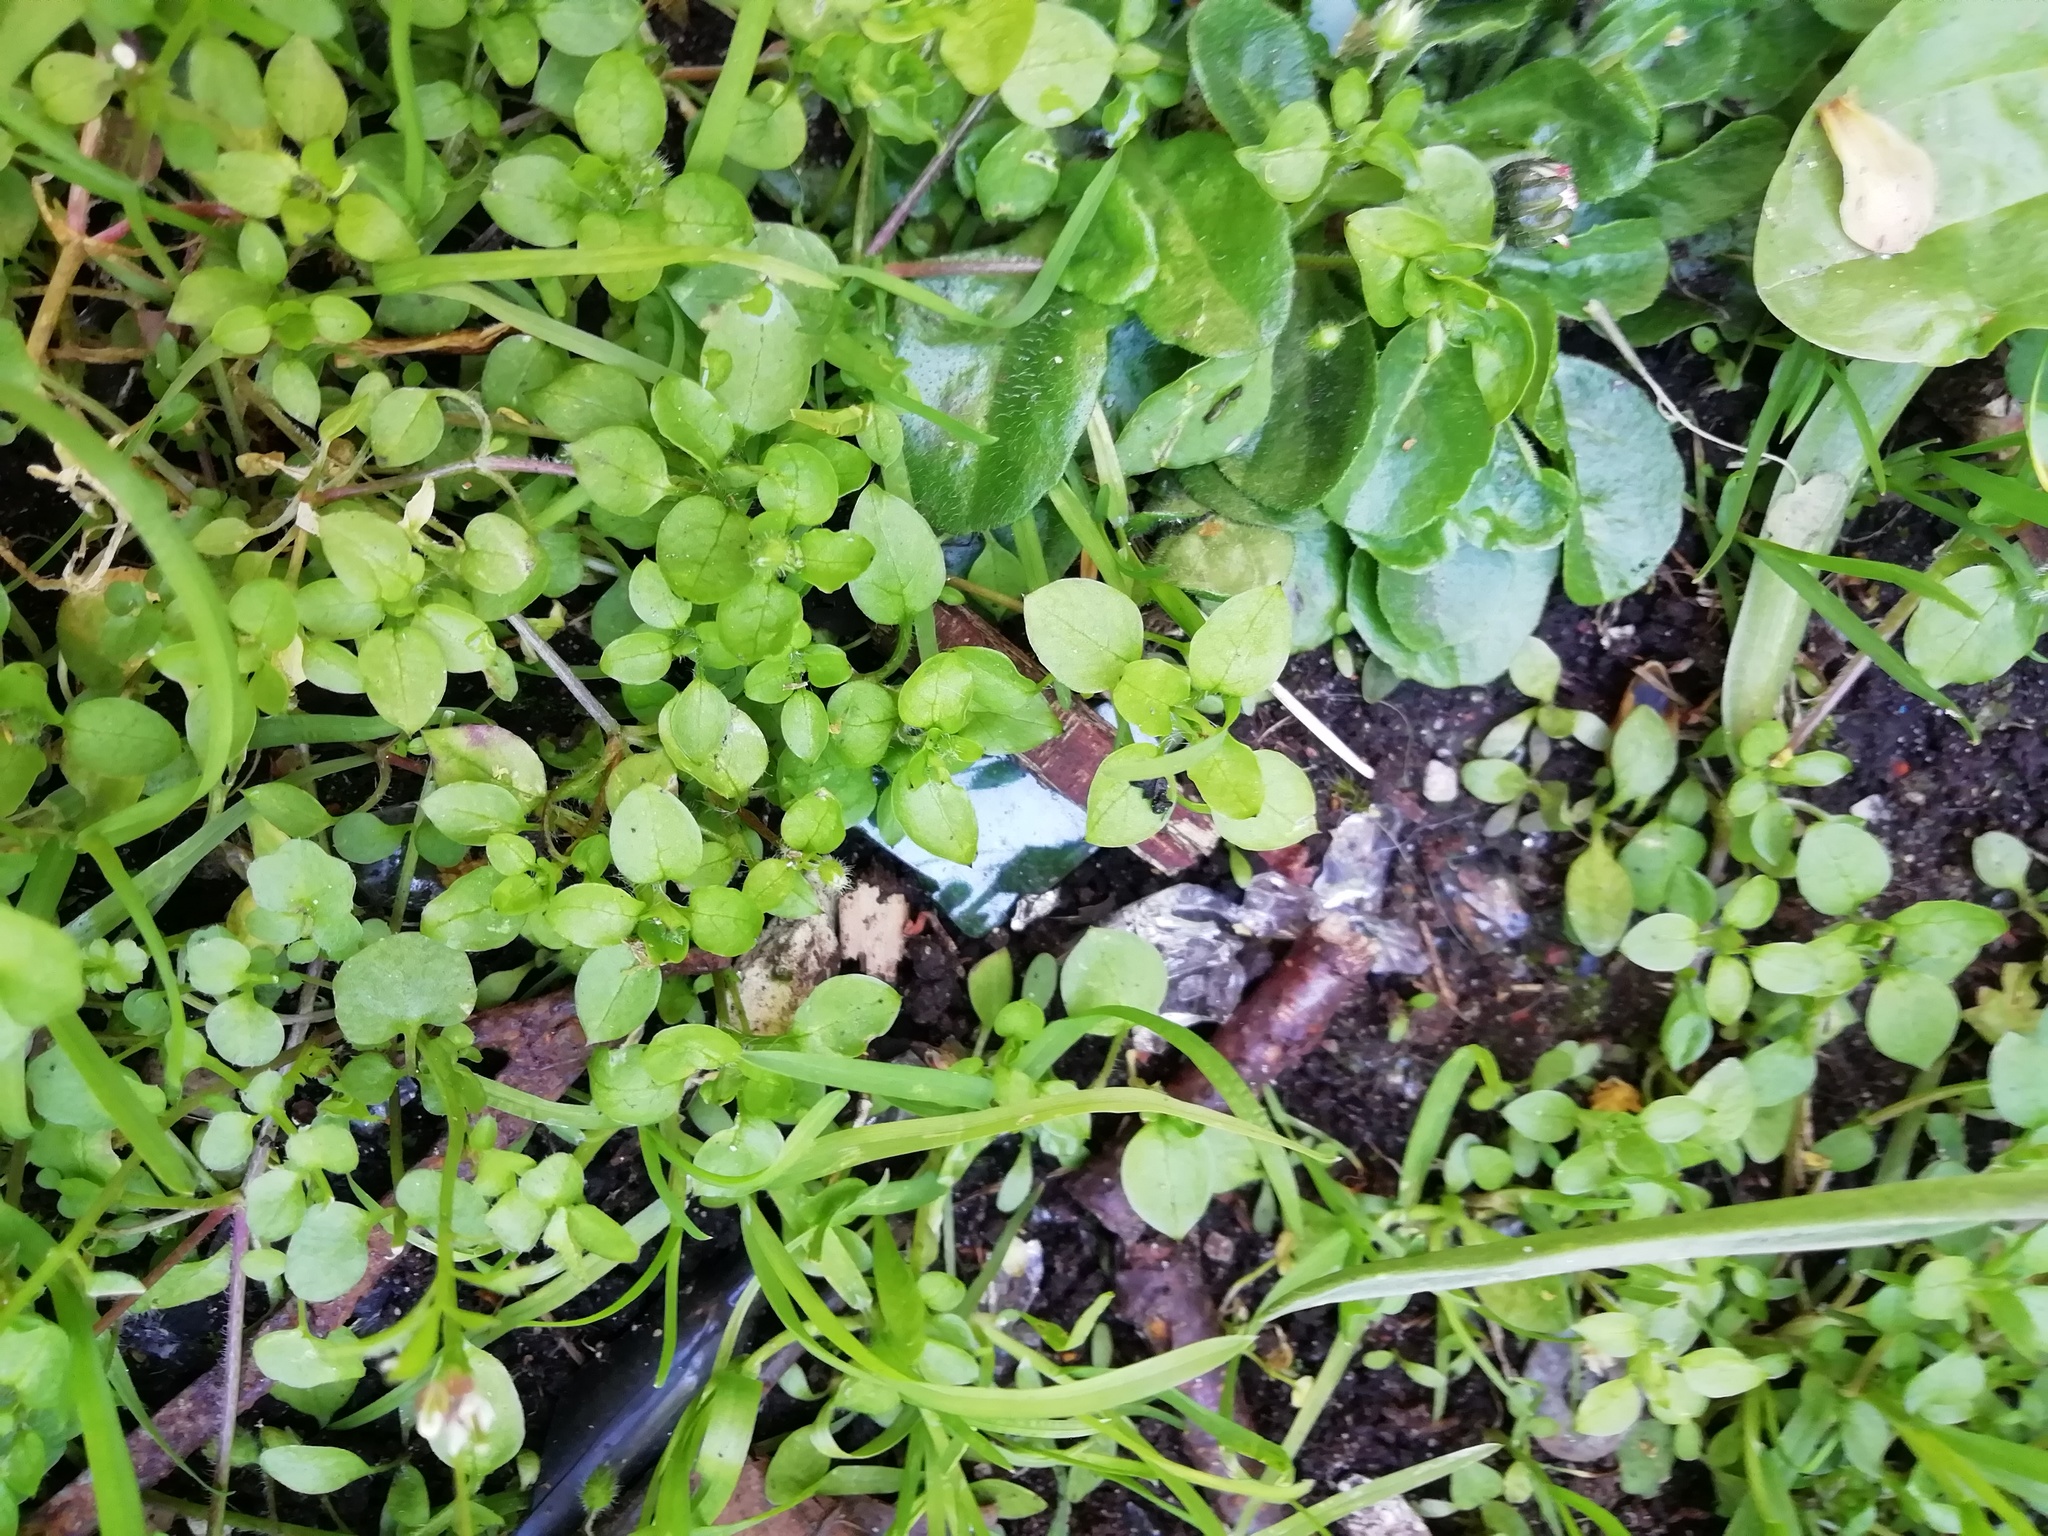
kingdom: Plantae
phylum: Tracheophyta
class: Magnoliopsida
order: Caryophyllales
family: Caryophyllaceae
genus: Stellaria
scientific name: Stellaria media
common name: Common chickweed
